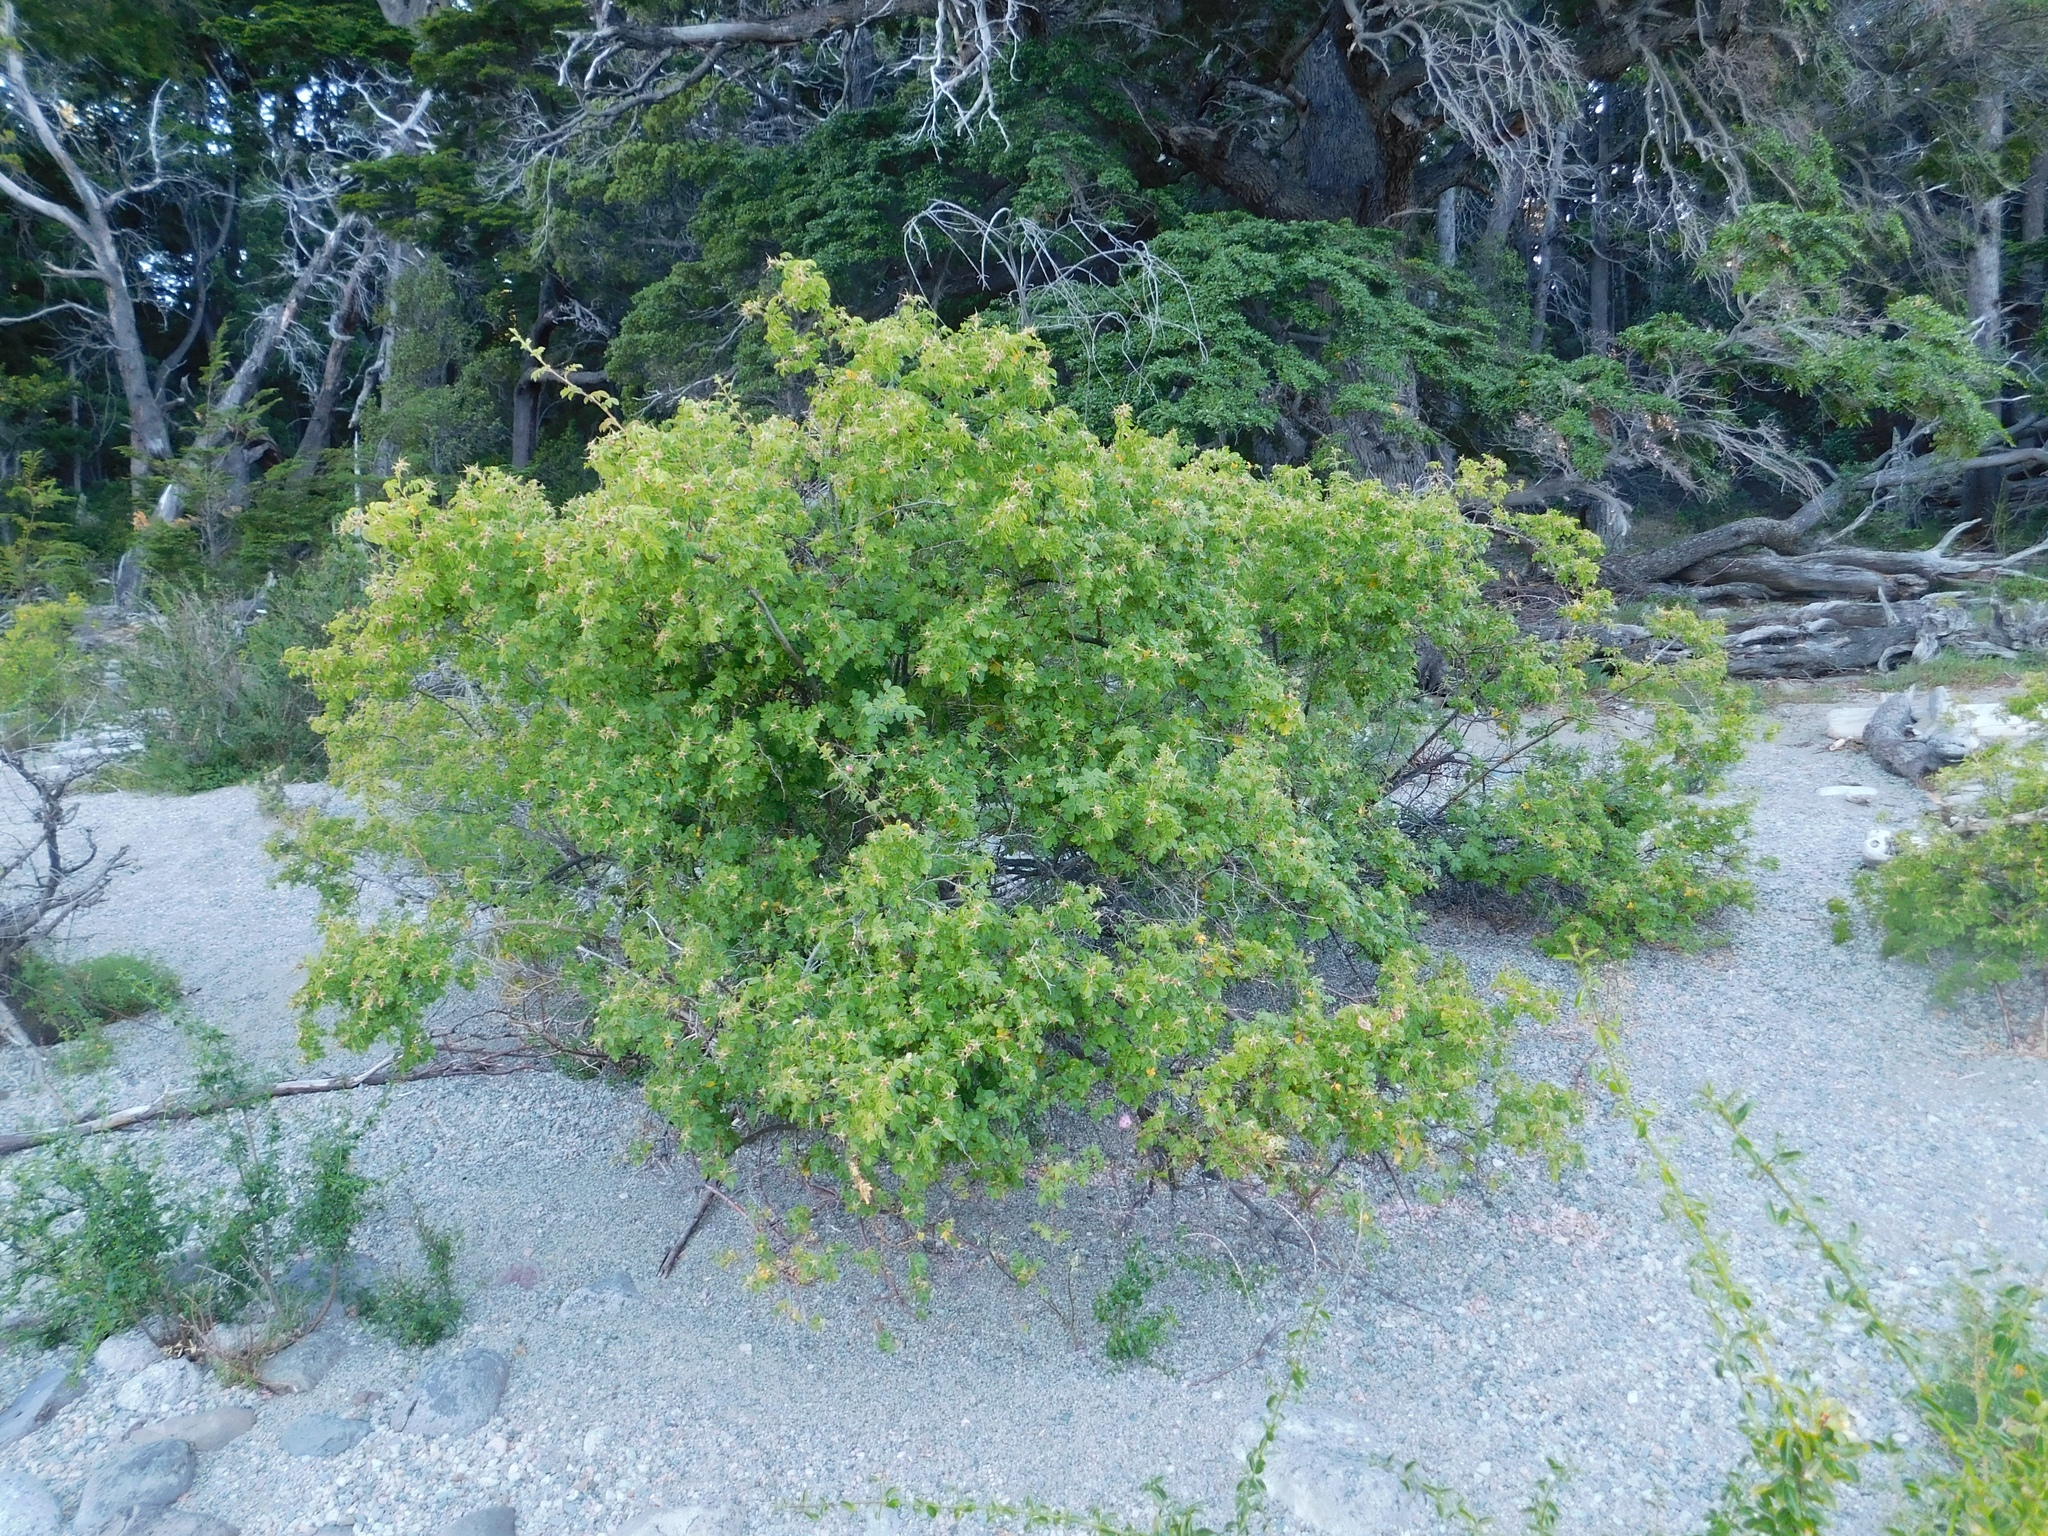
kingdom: Plantae
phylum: Tracheophyta
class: Magnoliopsida
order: Rosales
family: Rosaceae
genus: Rosa
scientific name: Rosa rubiginosa
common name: Sweet-briar
